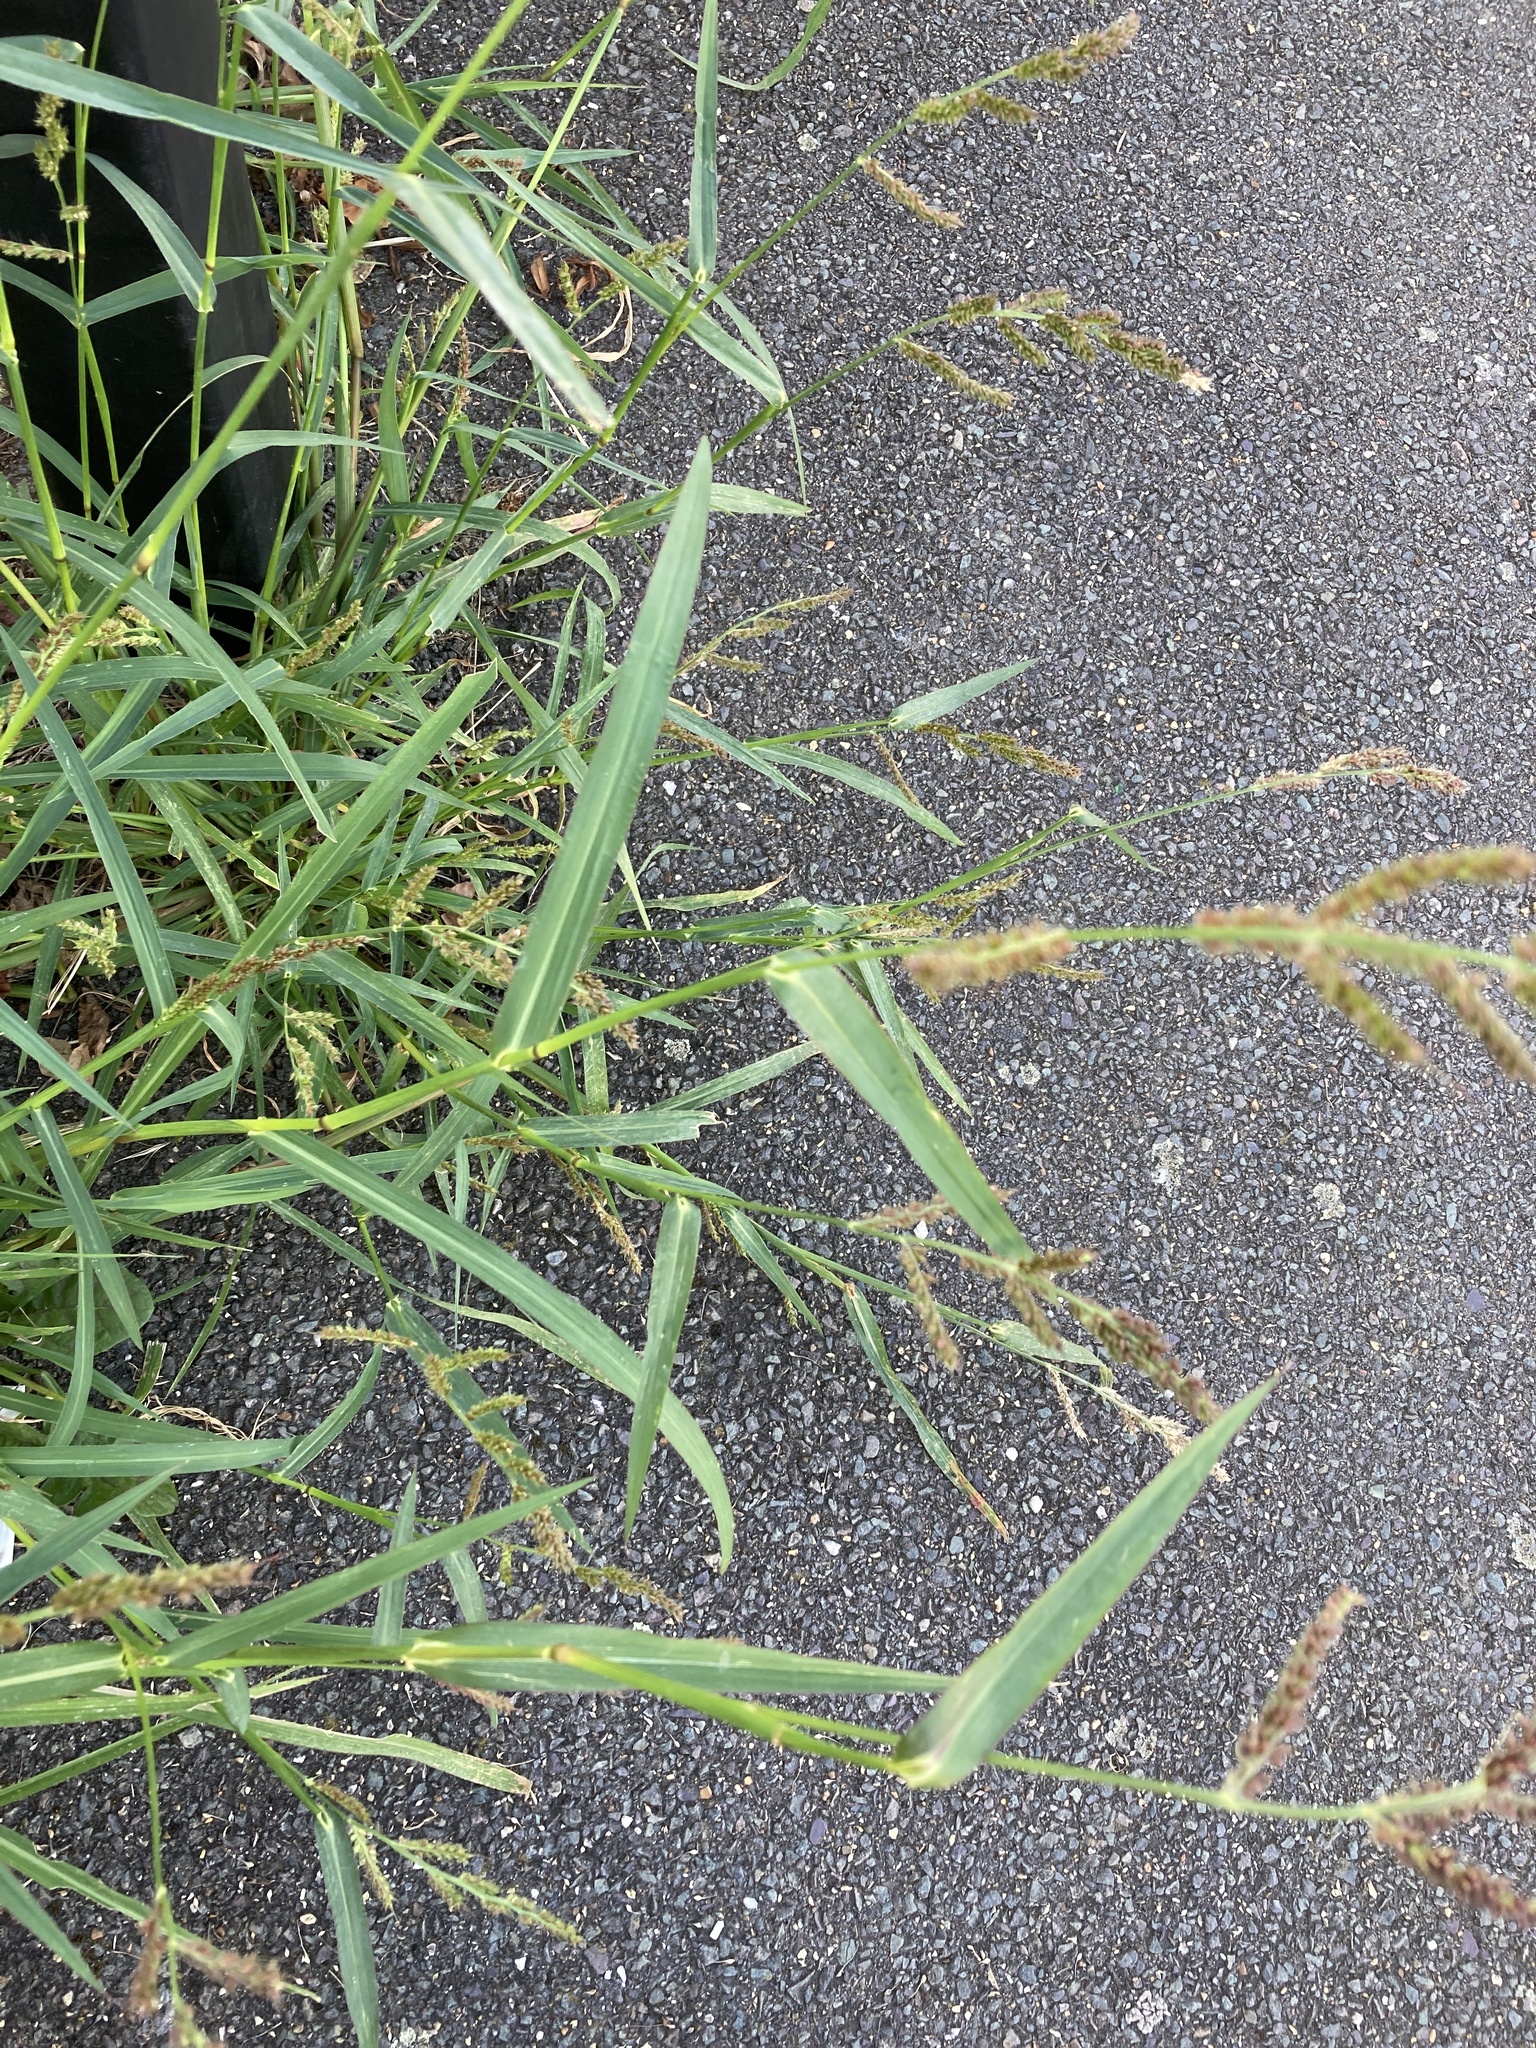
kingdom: Plantae
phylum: Tracheophyta
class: Liliopsida
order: Poales
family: Poaceae
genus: Echinochloa
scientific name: Echinochloa crus-galli
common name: Cockspur
